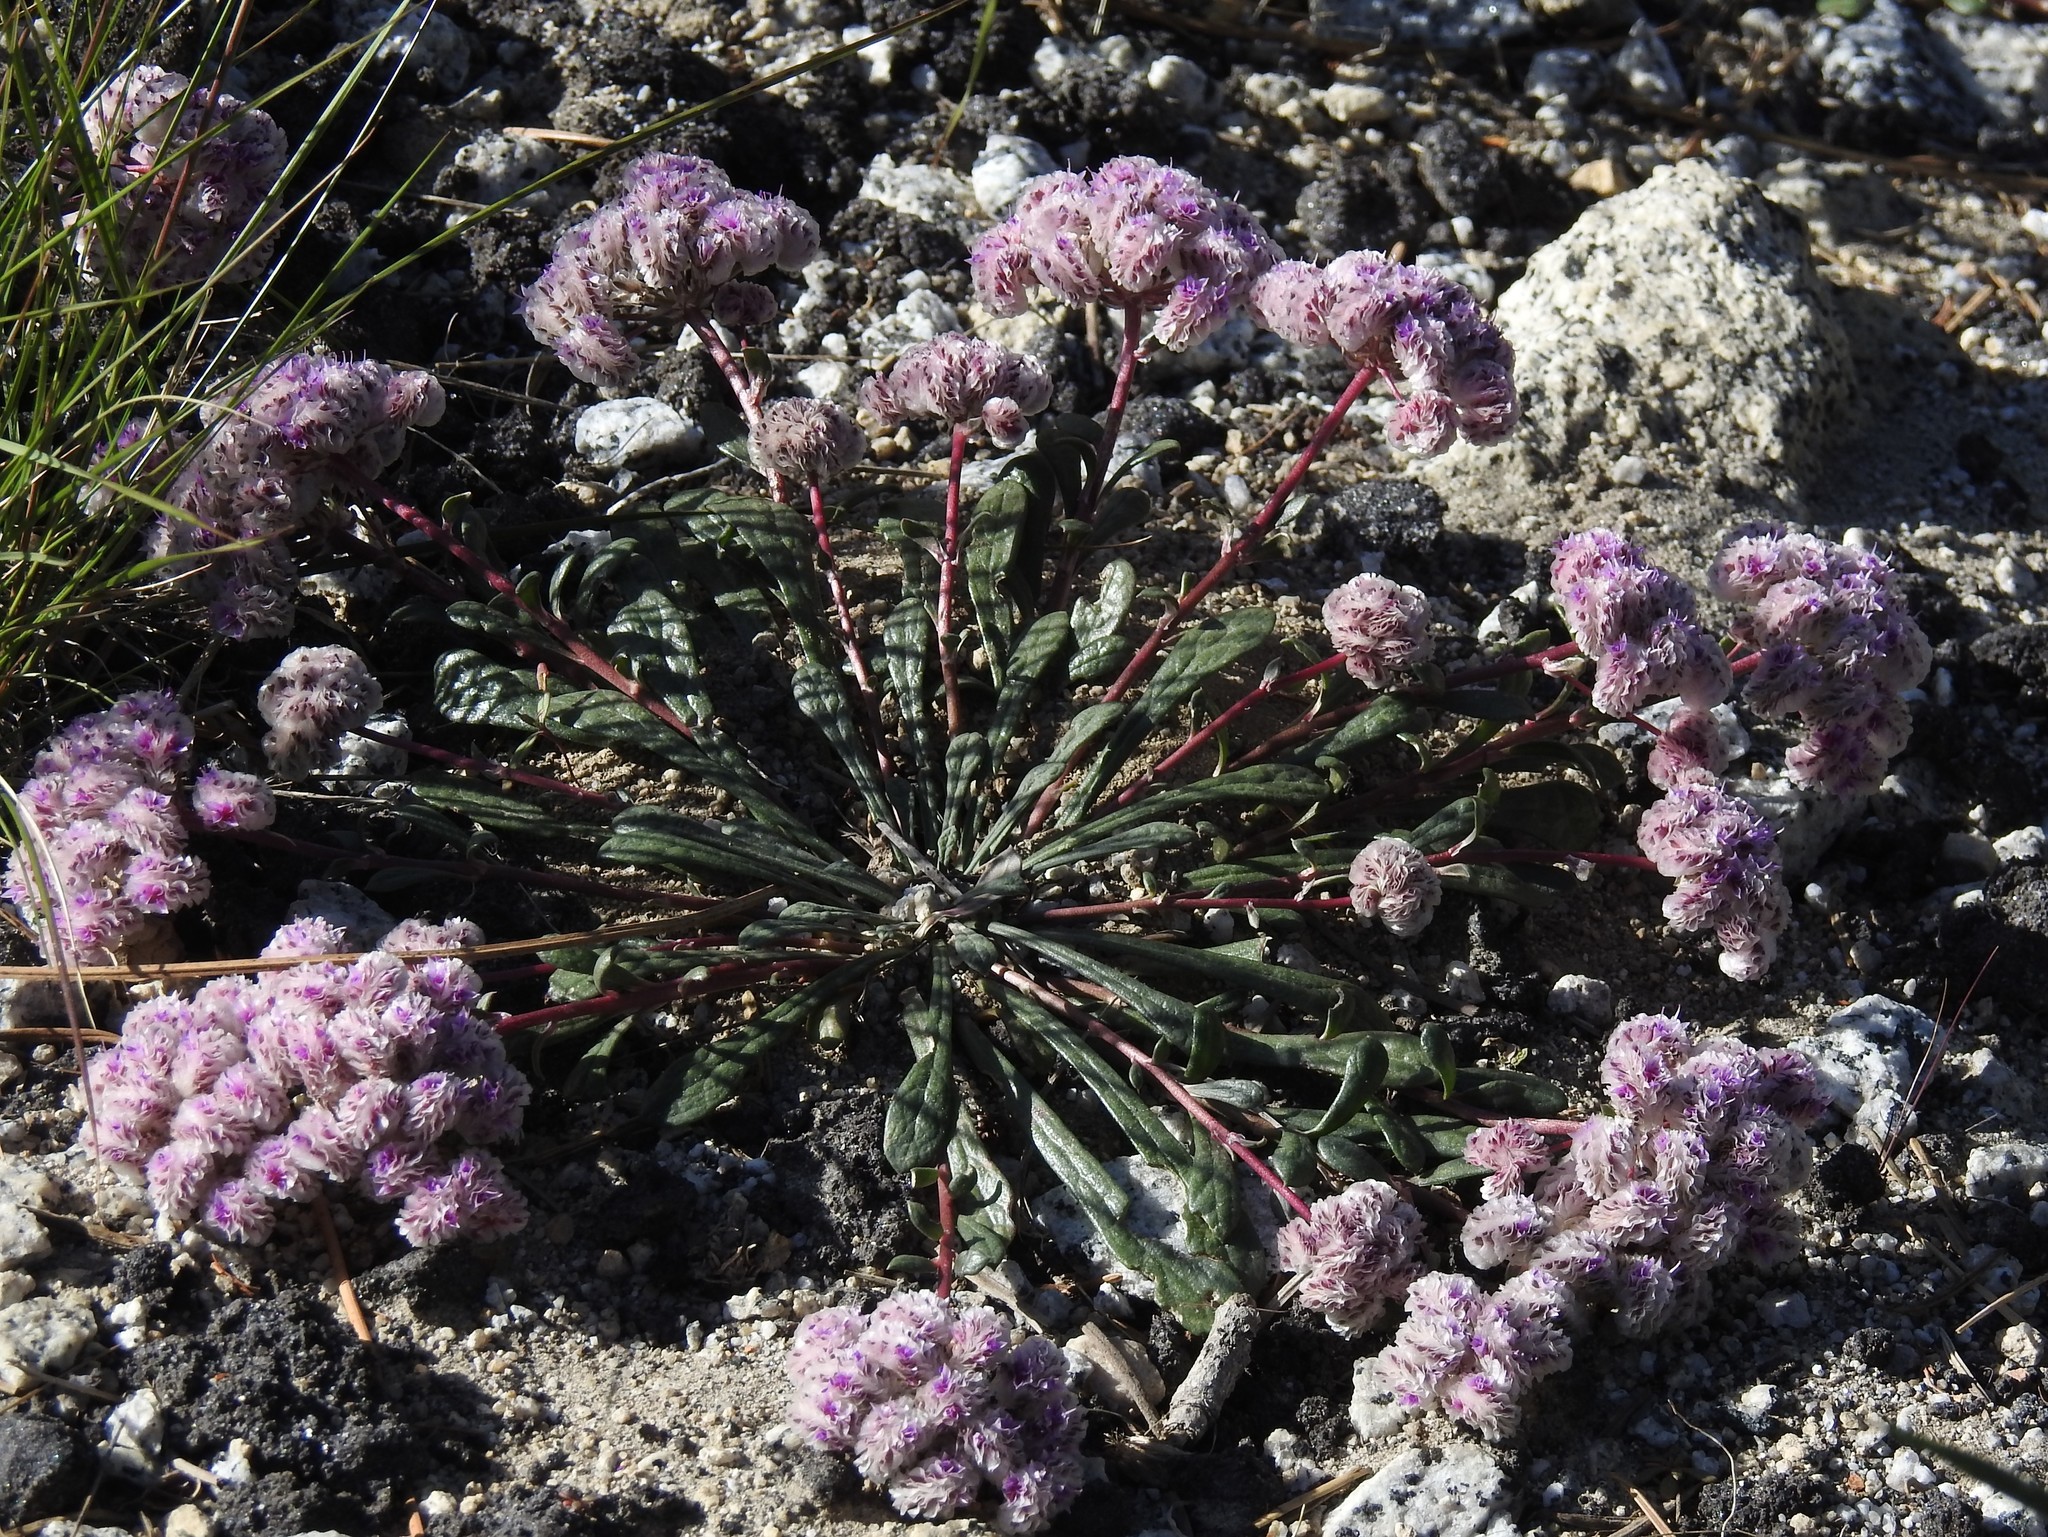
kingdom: Plantae
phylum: Tracheophyta
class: Magnoliopsida
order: Caryophyllales
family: Montiaceae
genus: Calyptridium
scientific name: Calyptridium monospermum
